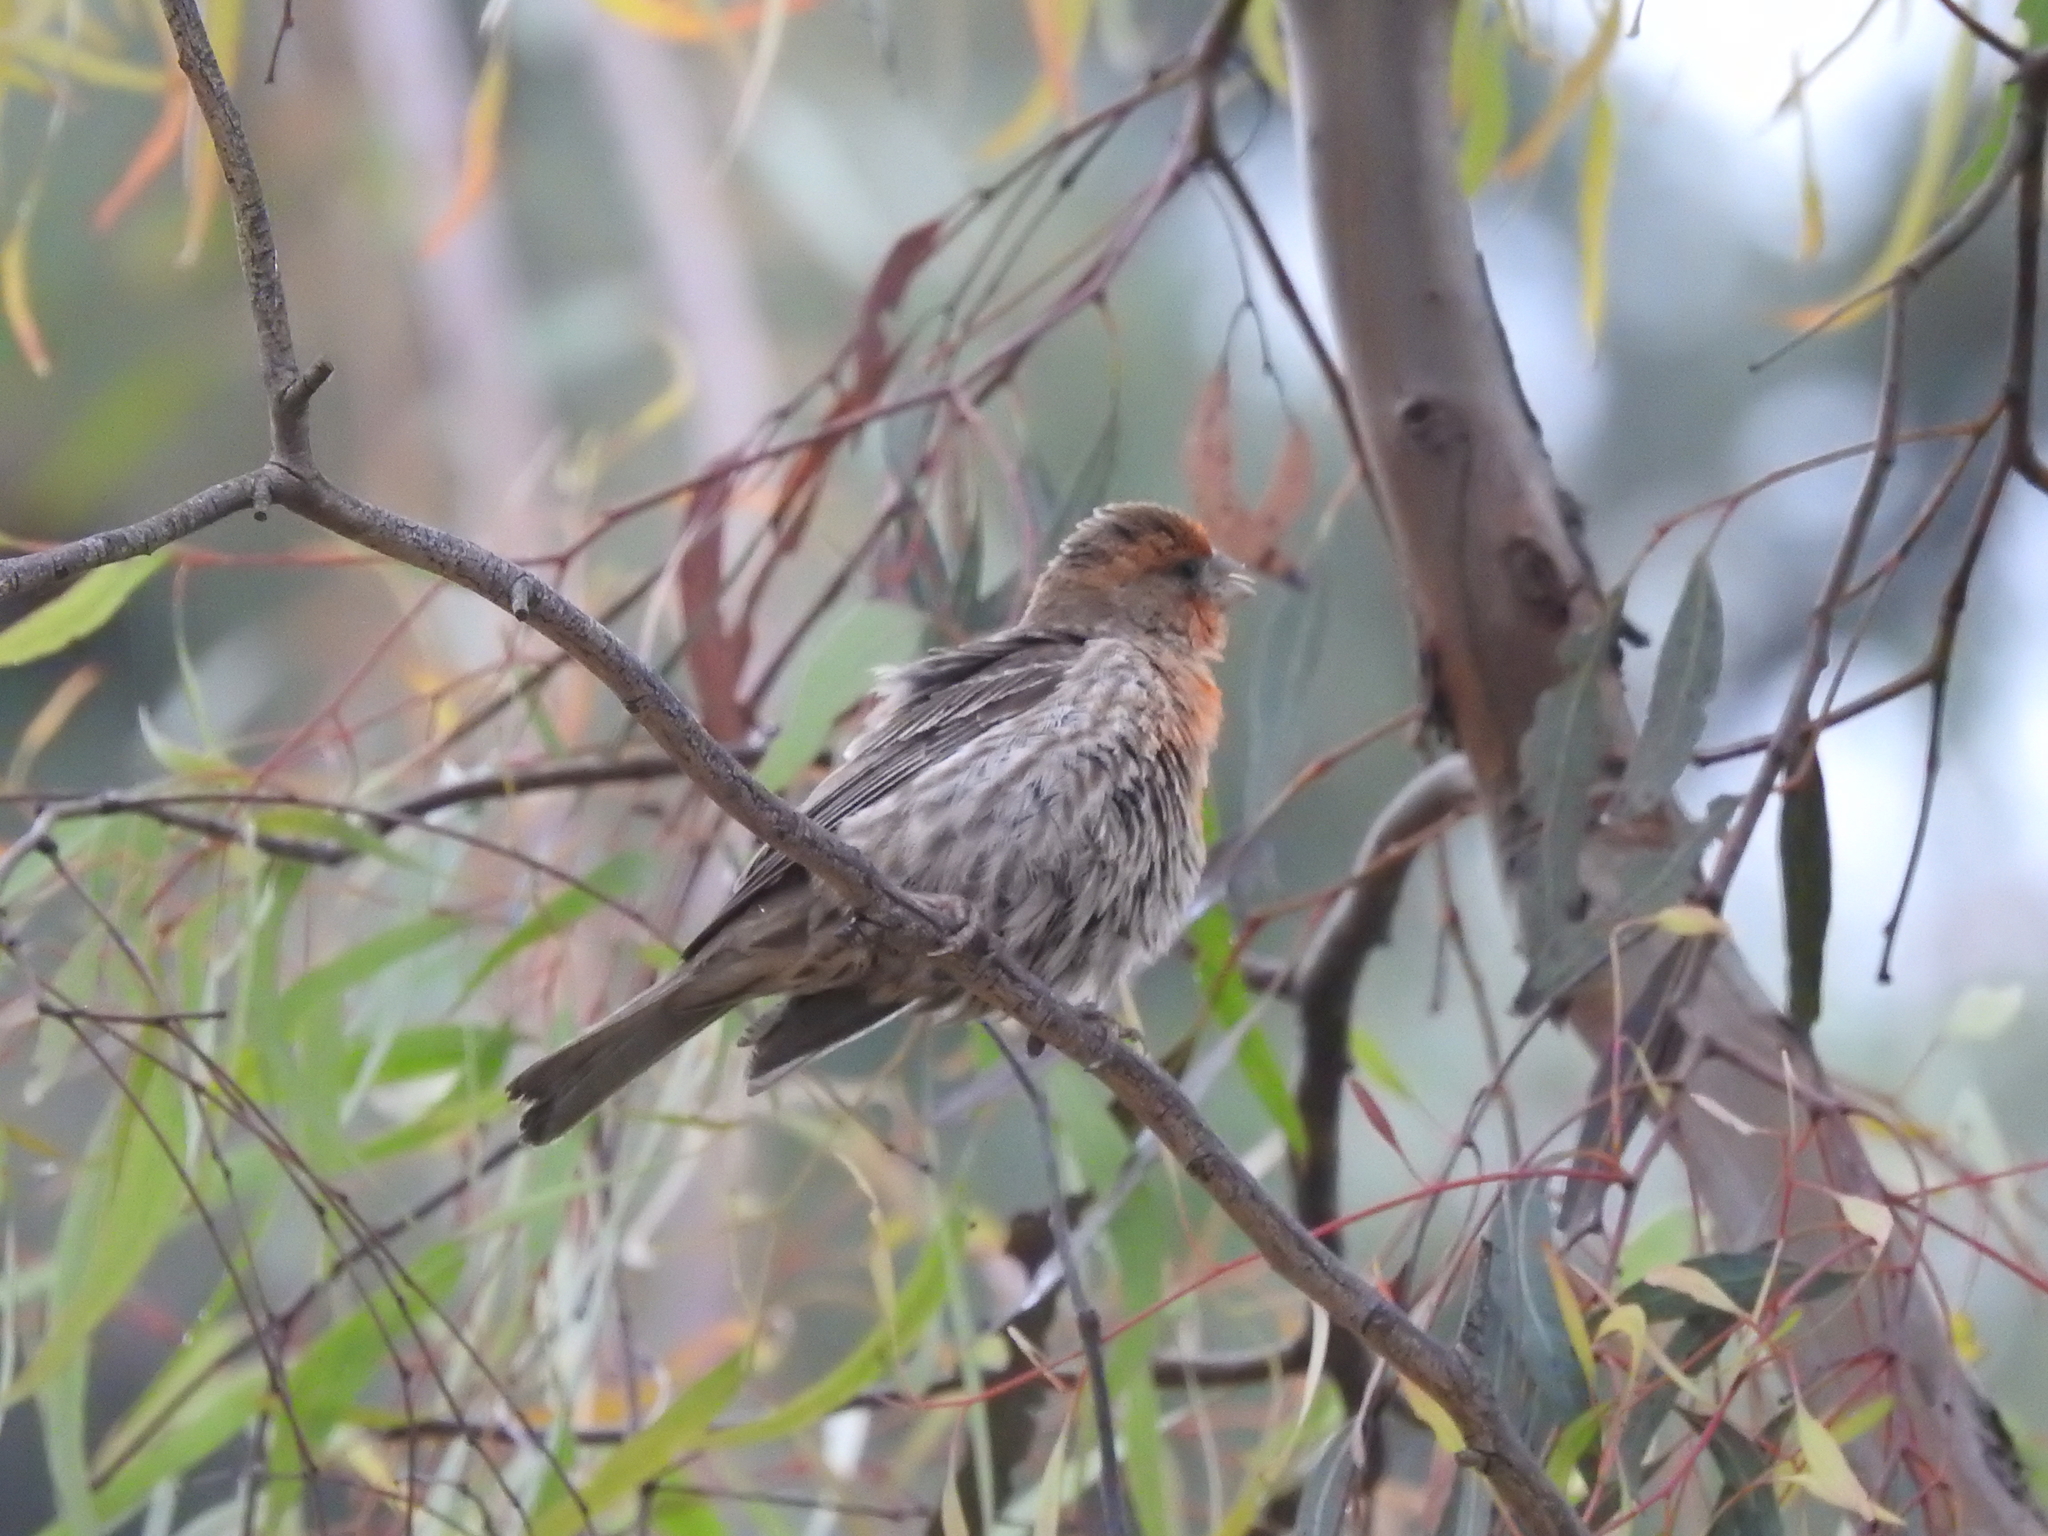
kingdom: Animalia
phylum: Chordata
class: Aves
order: Passeriformes
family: Fringillidae
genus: Haemorhous
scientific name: Haemorhous mexicanus
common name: House finch
